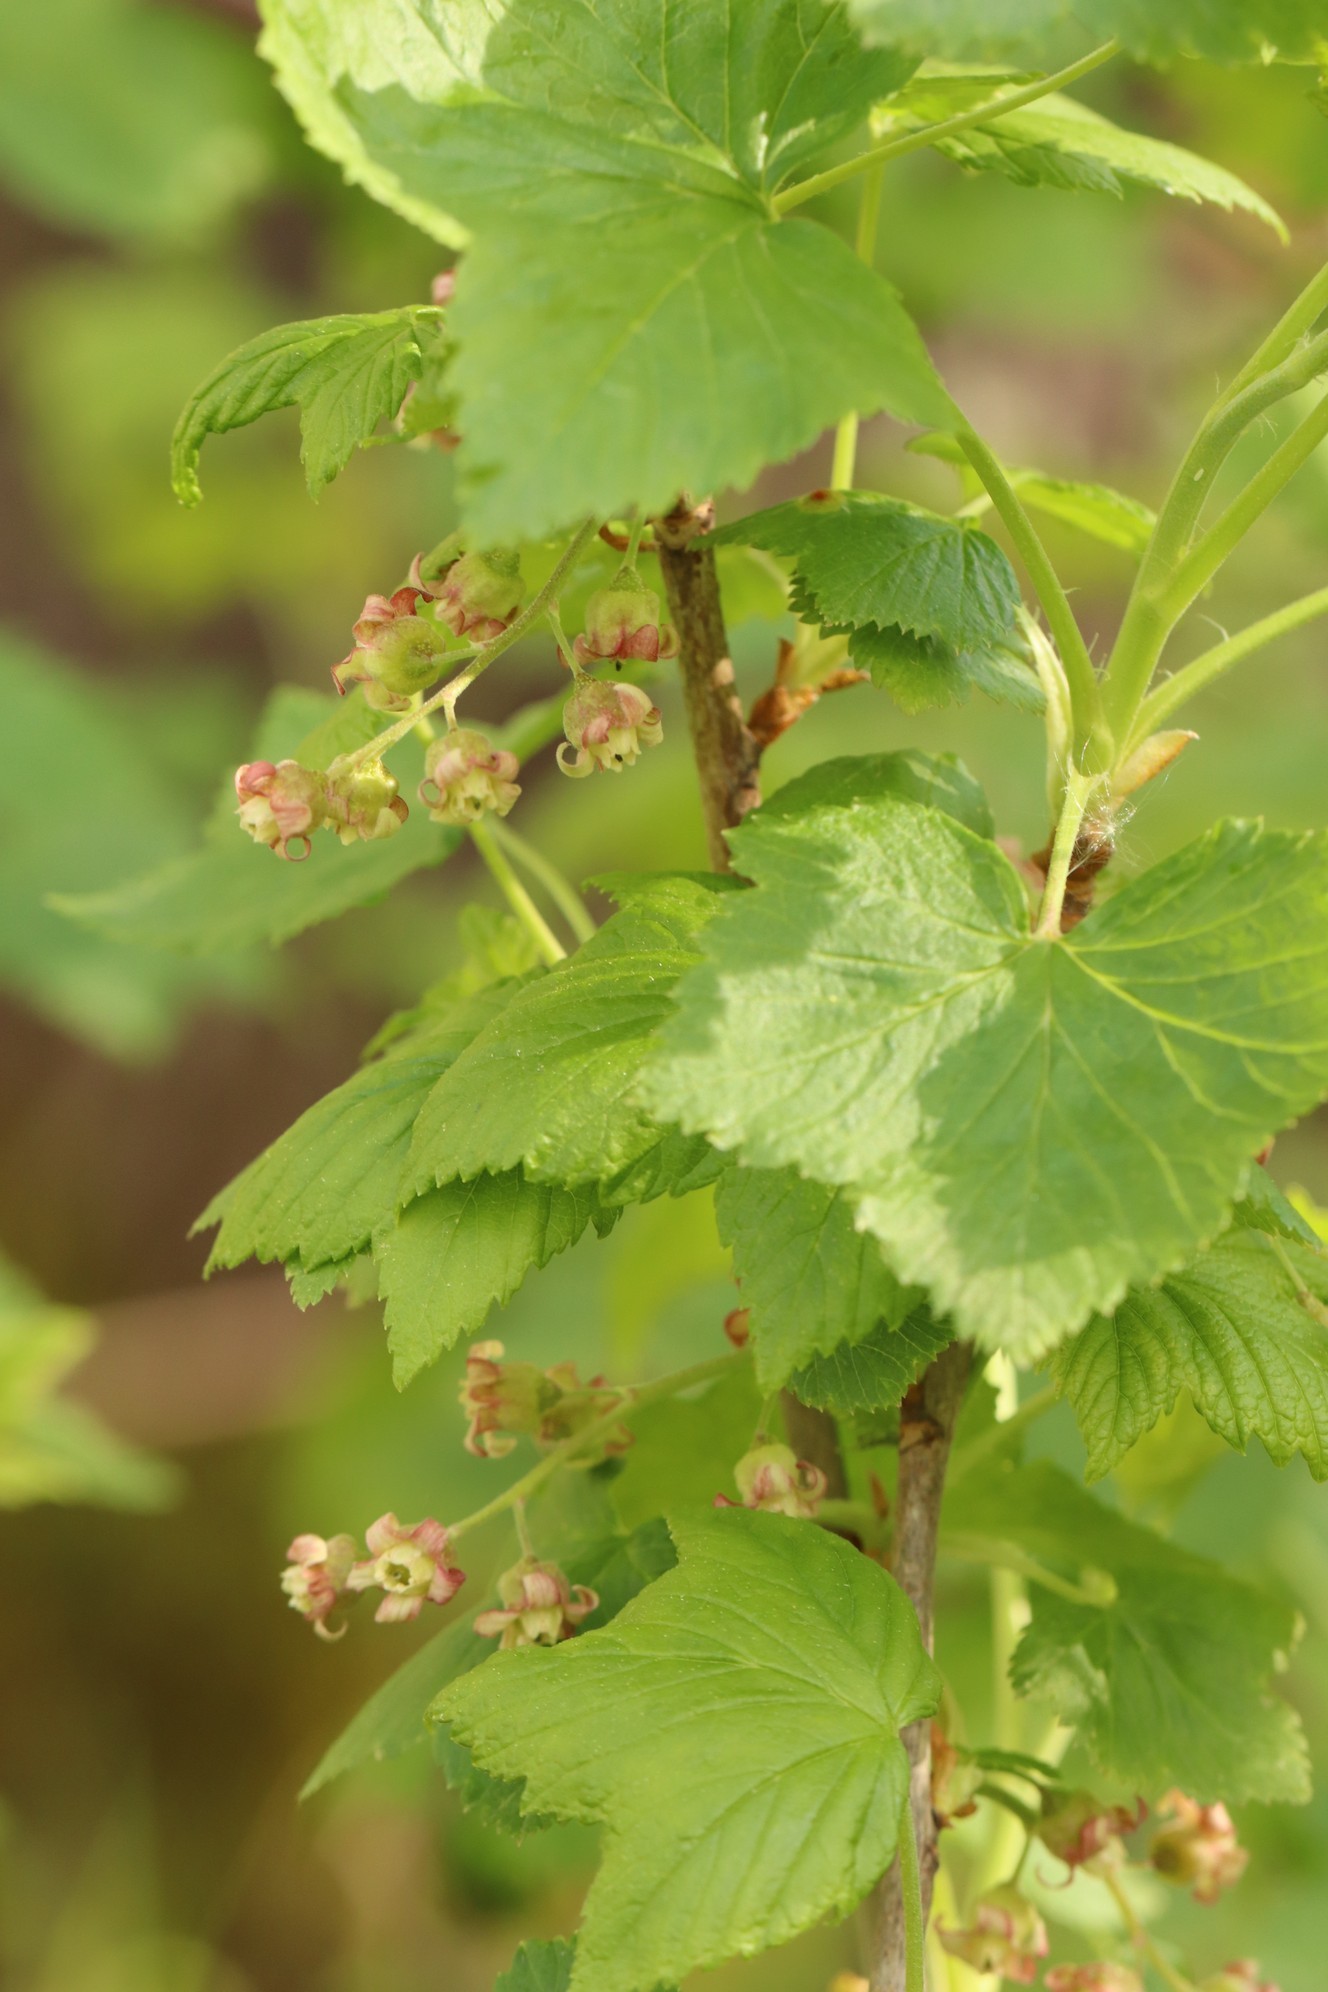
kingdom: Plantae
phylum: Tracheophyta
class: Magnoliopsida
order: Saxifragales
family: Grossulariaceae
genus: Ribes
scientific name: Ribes nigrum
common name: Black currant
